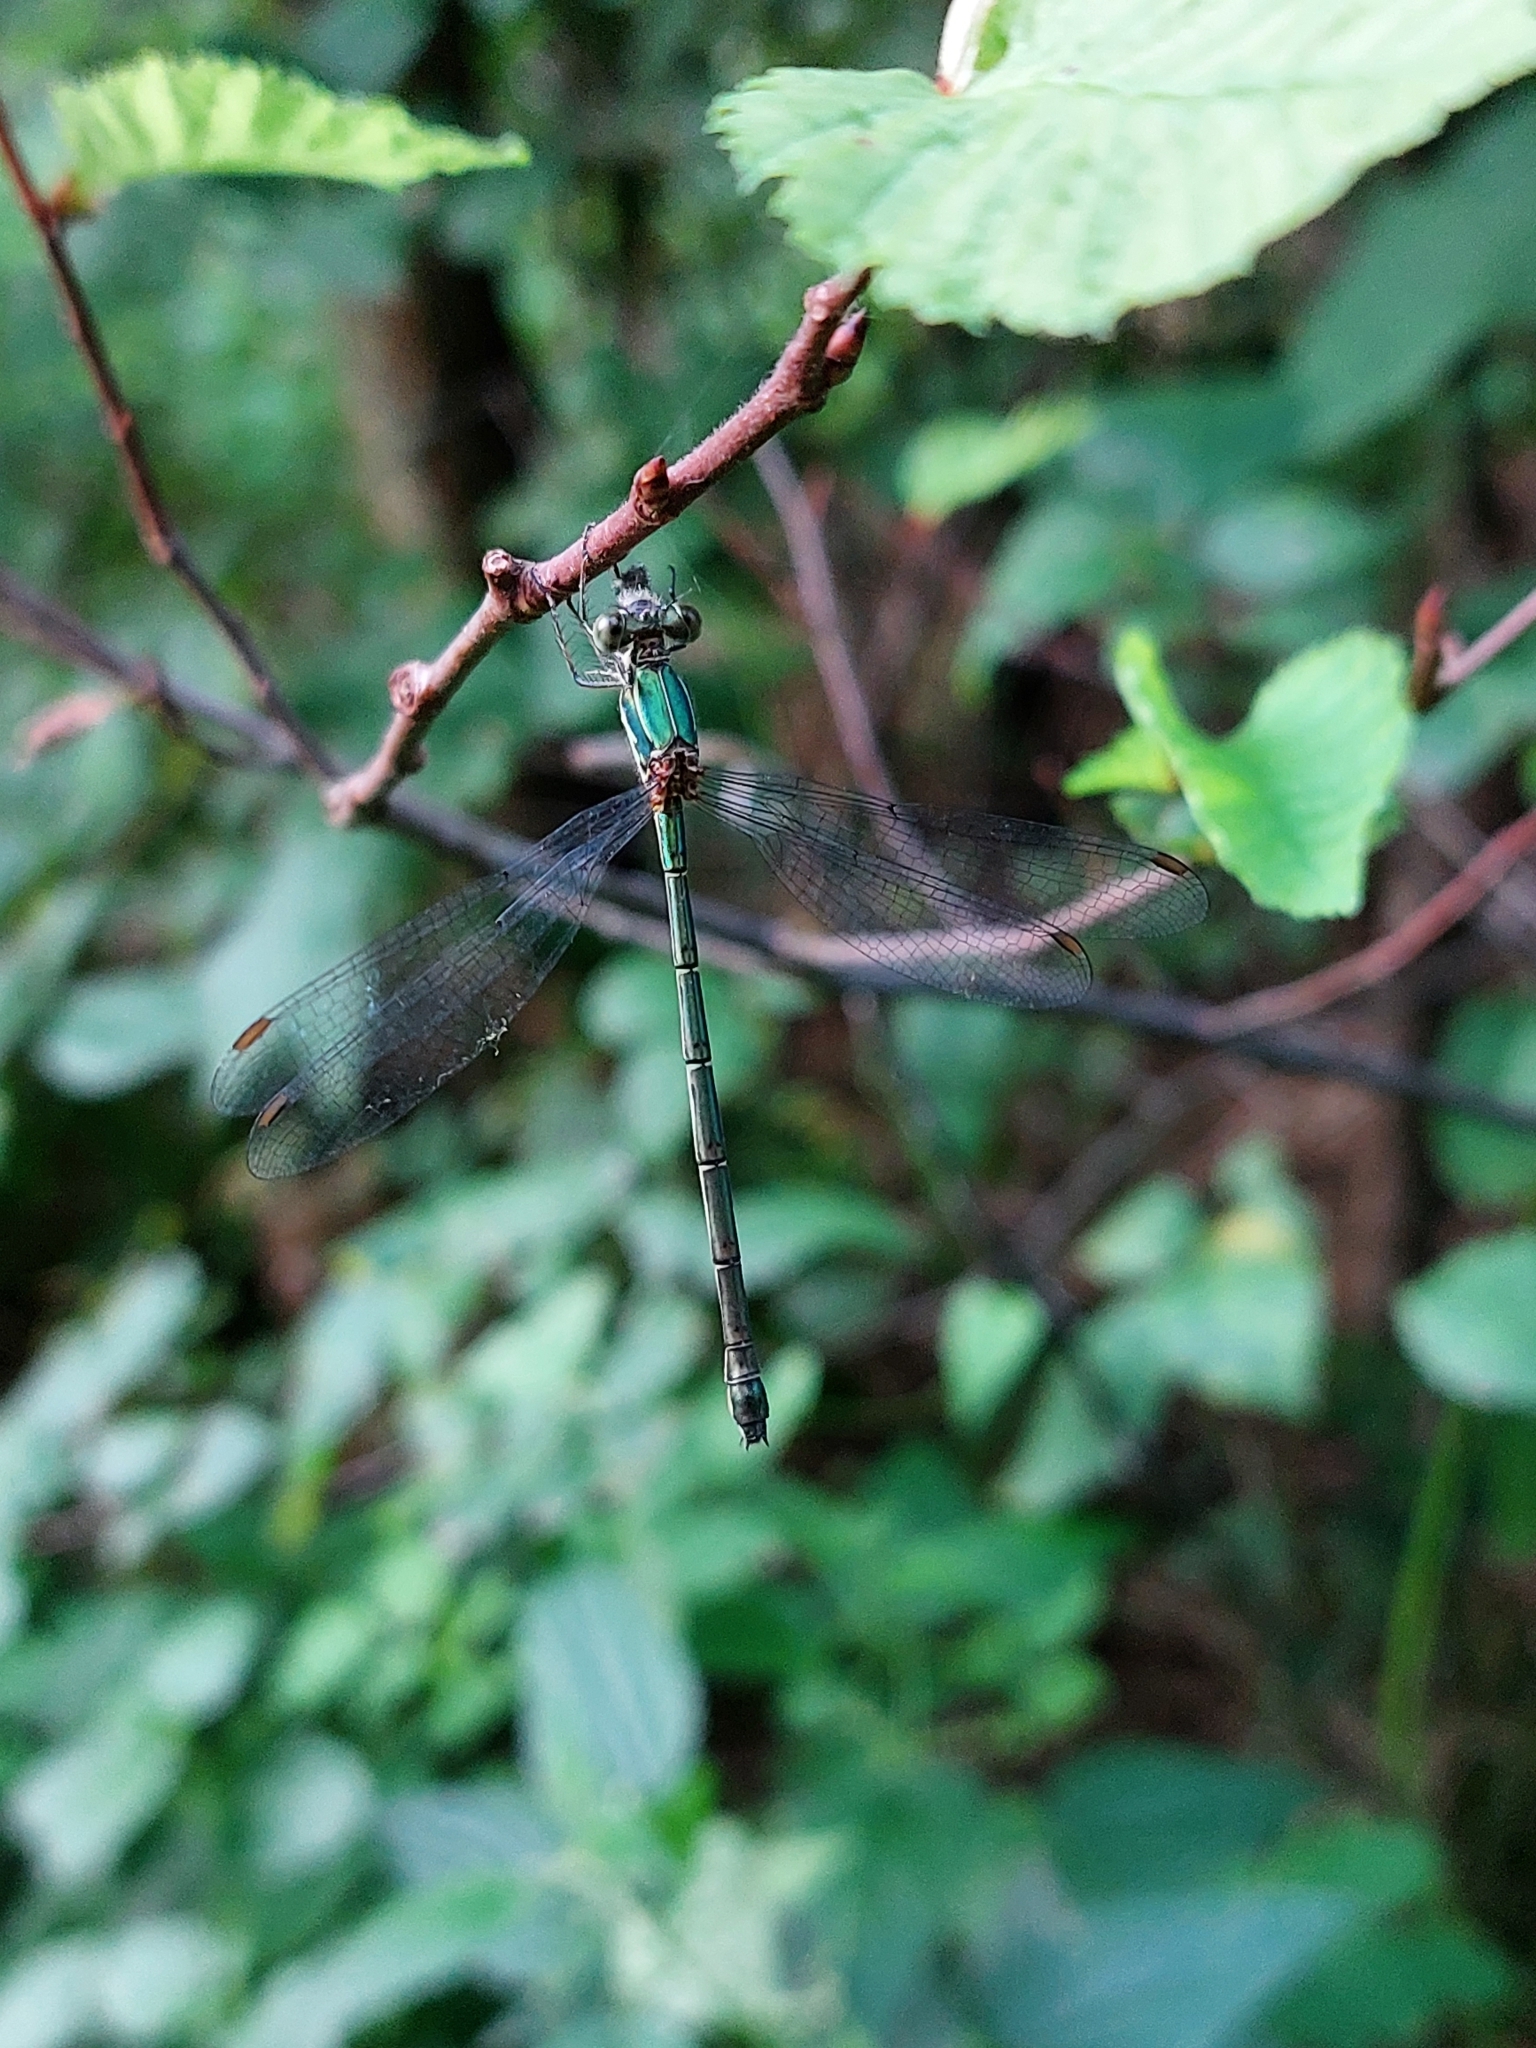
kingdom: Animalia
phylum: Arthropoda
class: Insecta
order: Odonata
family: Lestidae
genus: Chalcolestes
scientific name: Chalcolestes parvidens
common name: Eastern willow spreadwing
